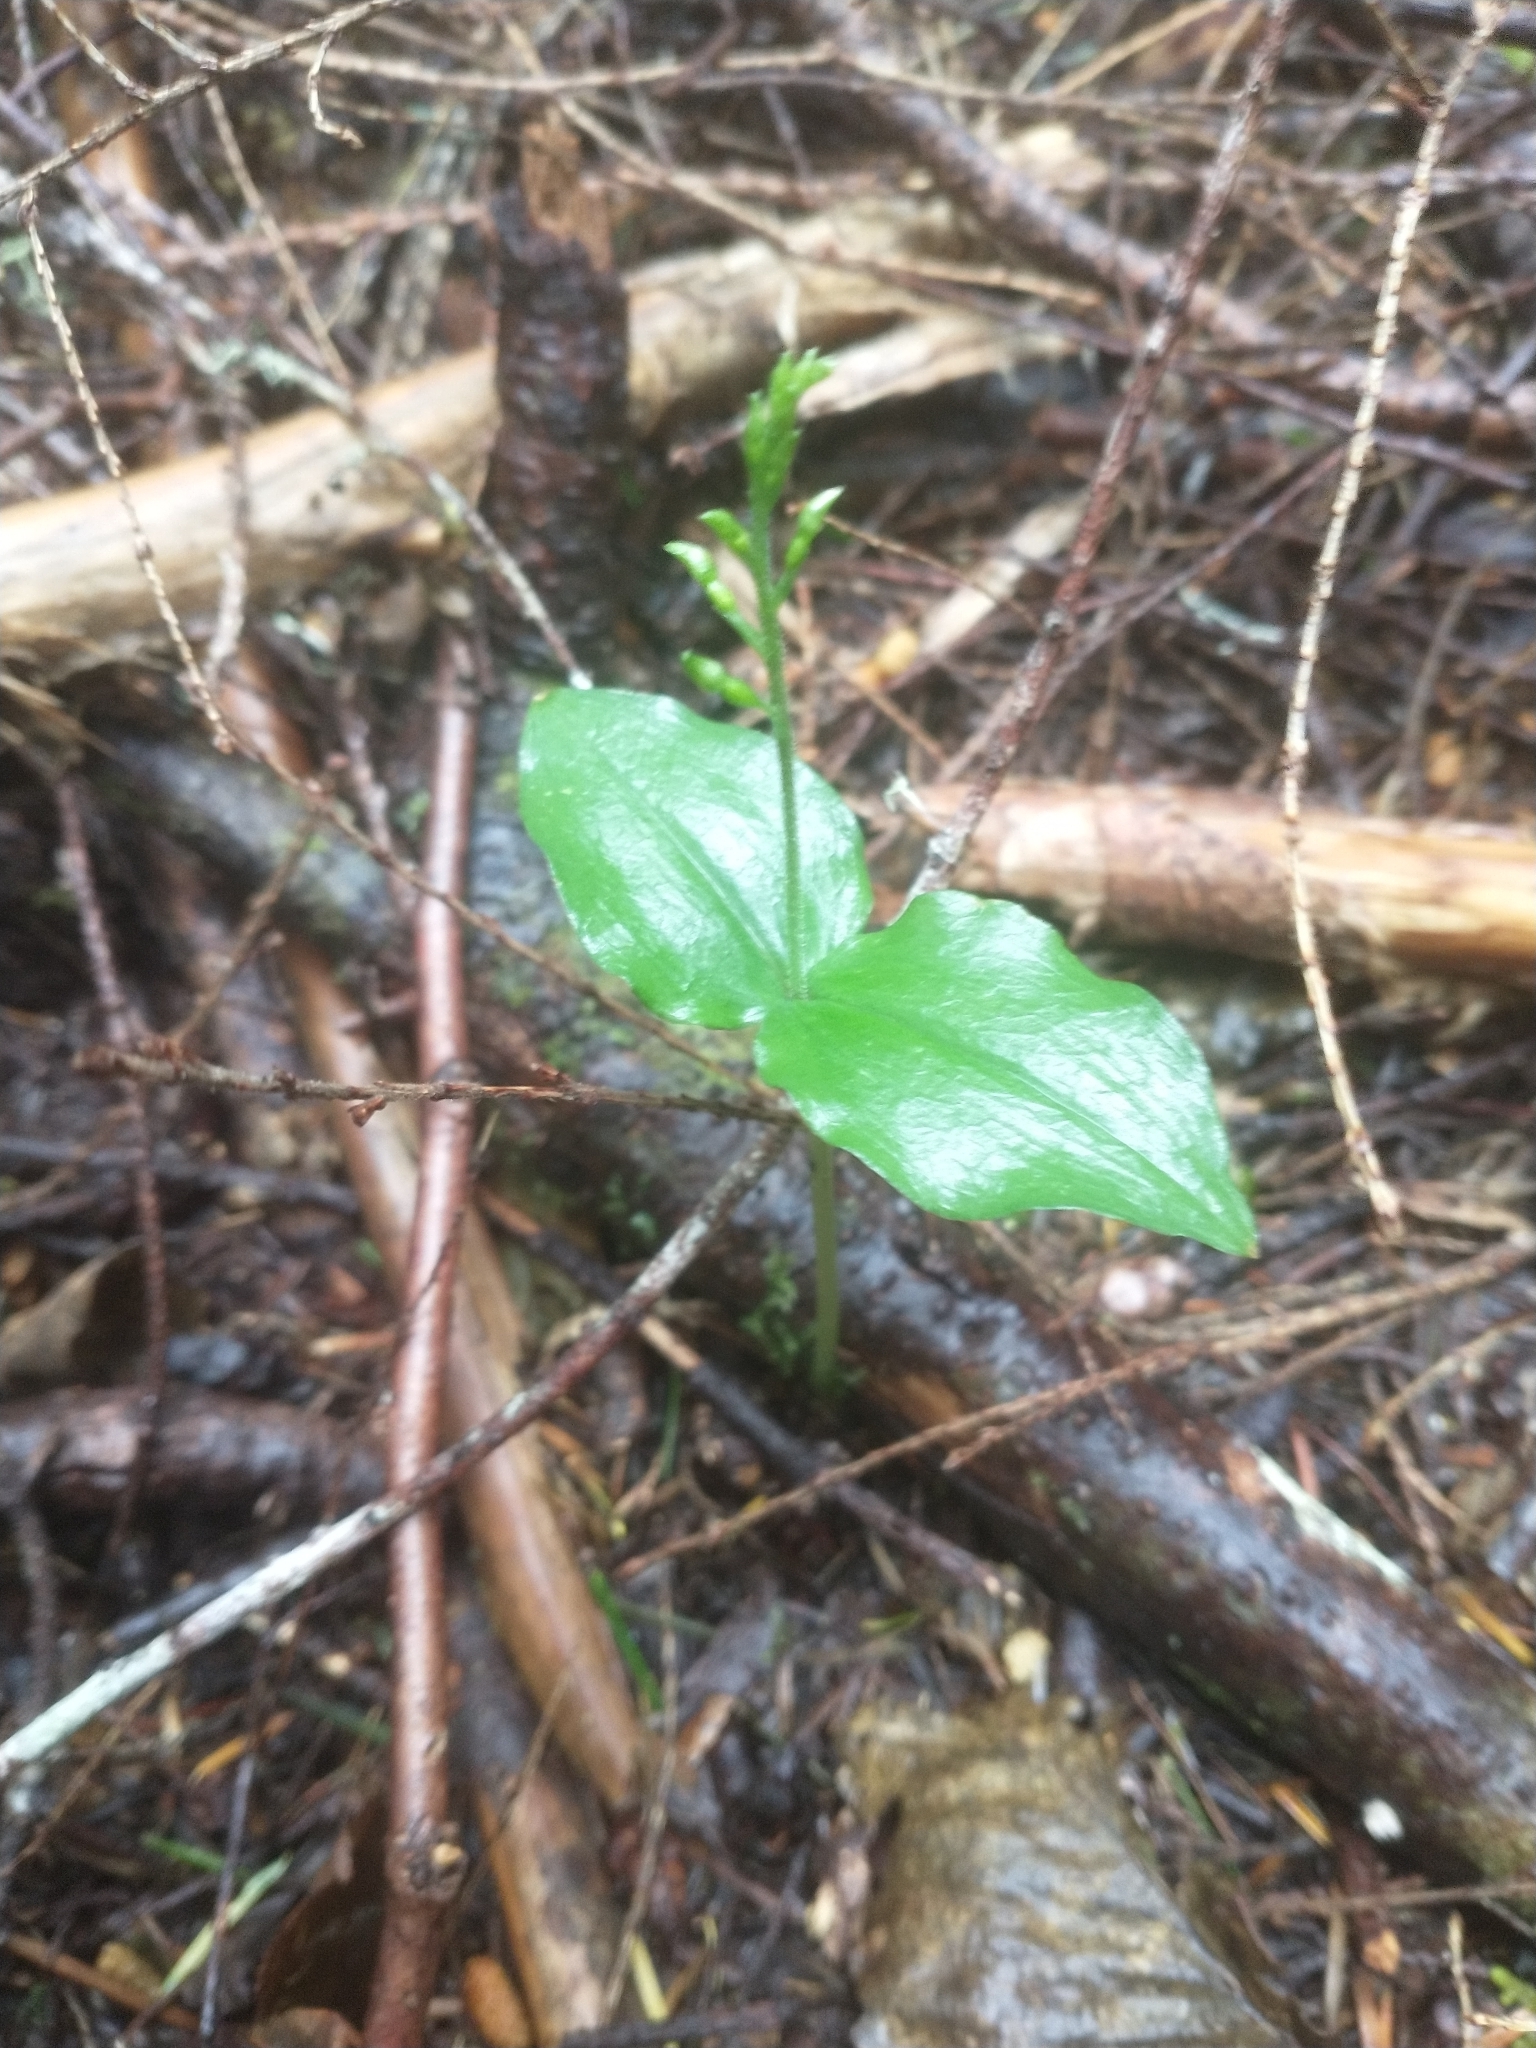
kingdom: Plantae
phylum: Tracheophyta
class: Liliopsida
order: Asparagales
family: Orchidaceae
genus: Neottia
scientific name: Neottia banksiana
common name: Northwestern twayblade
